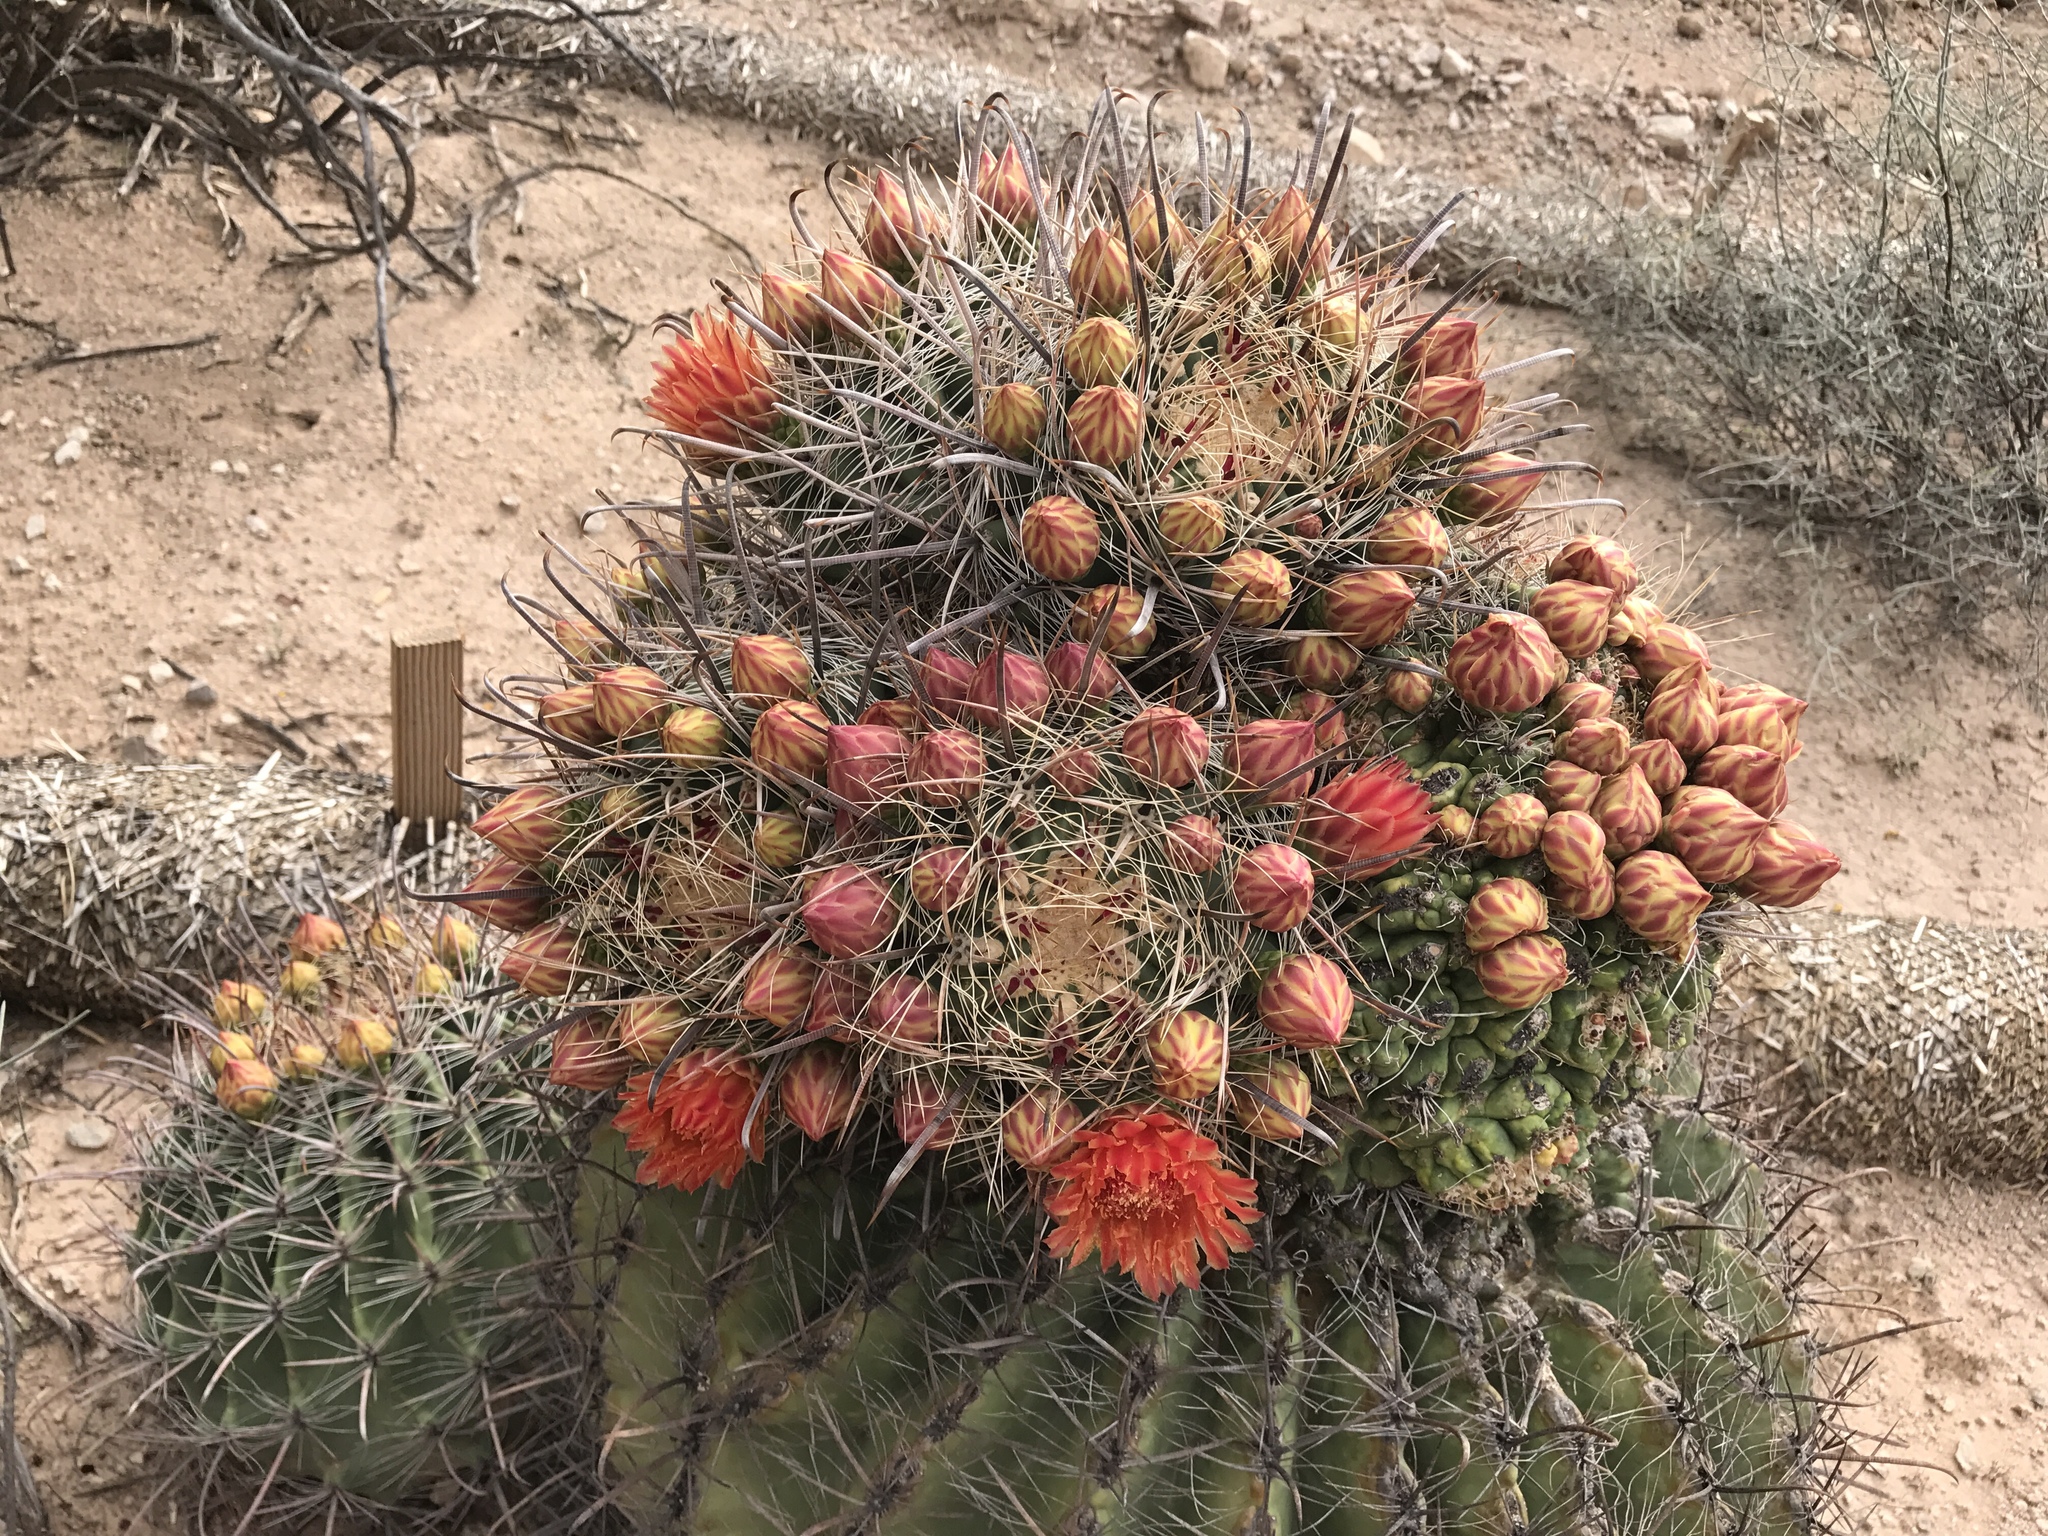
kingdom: Plantae
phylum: Tracheophyta
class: Magnoliopsida
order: Caryophyllales
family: Cactaceae
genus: Ferocactus
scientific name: Ferocactus wislizeni
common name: Candy barrel cactus
